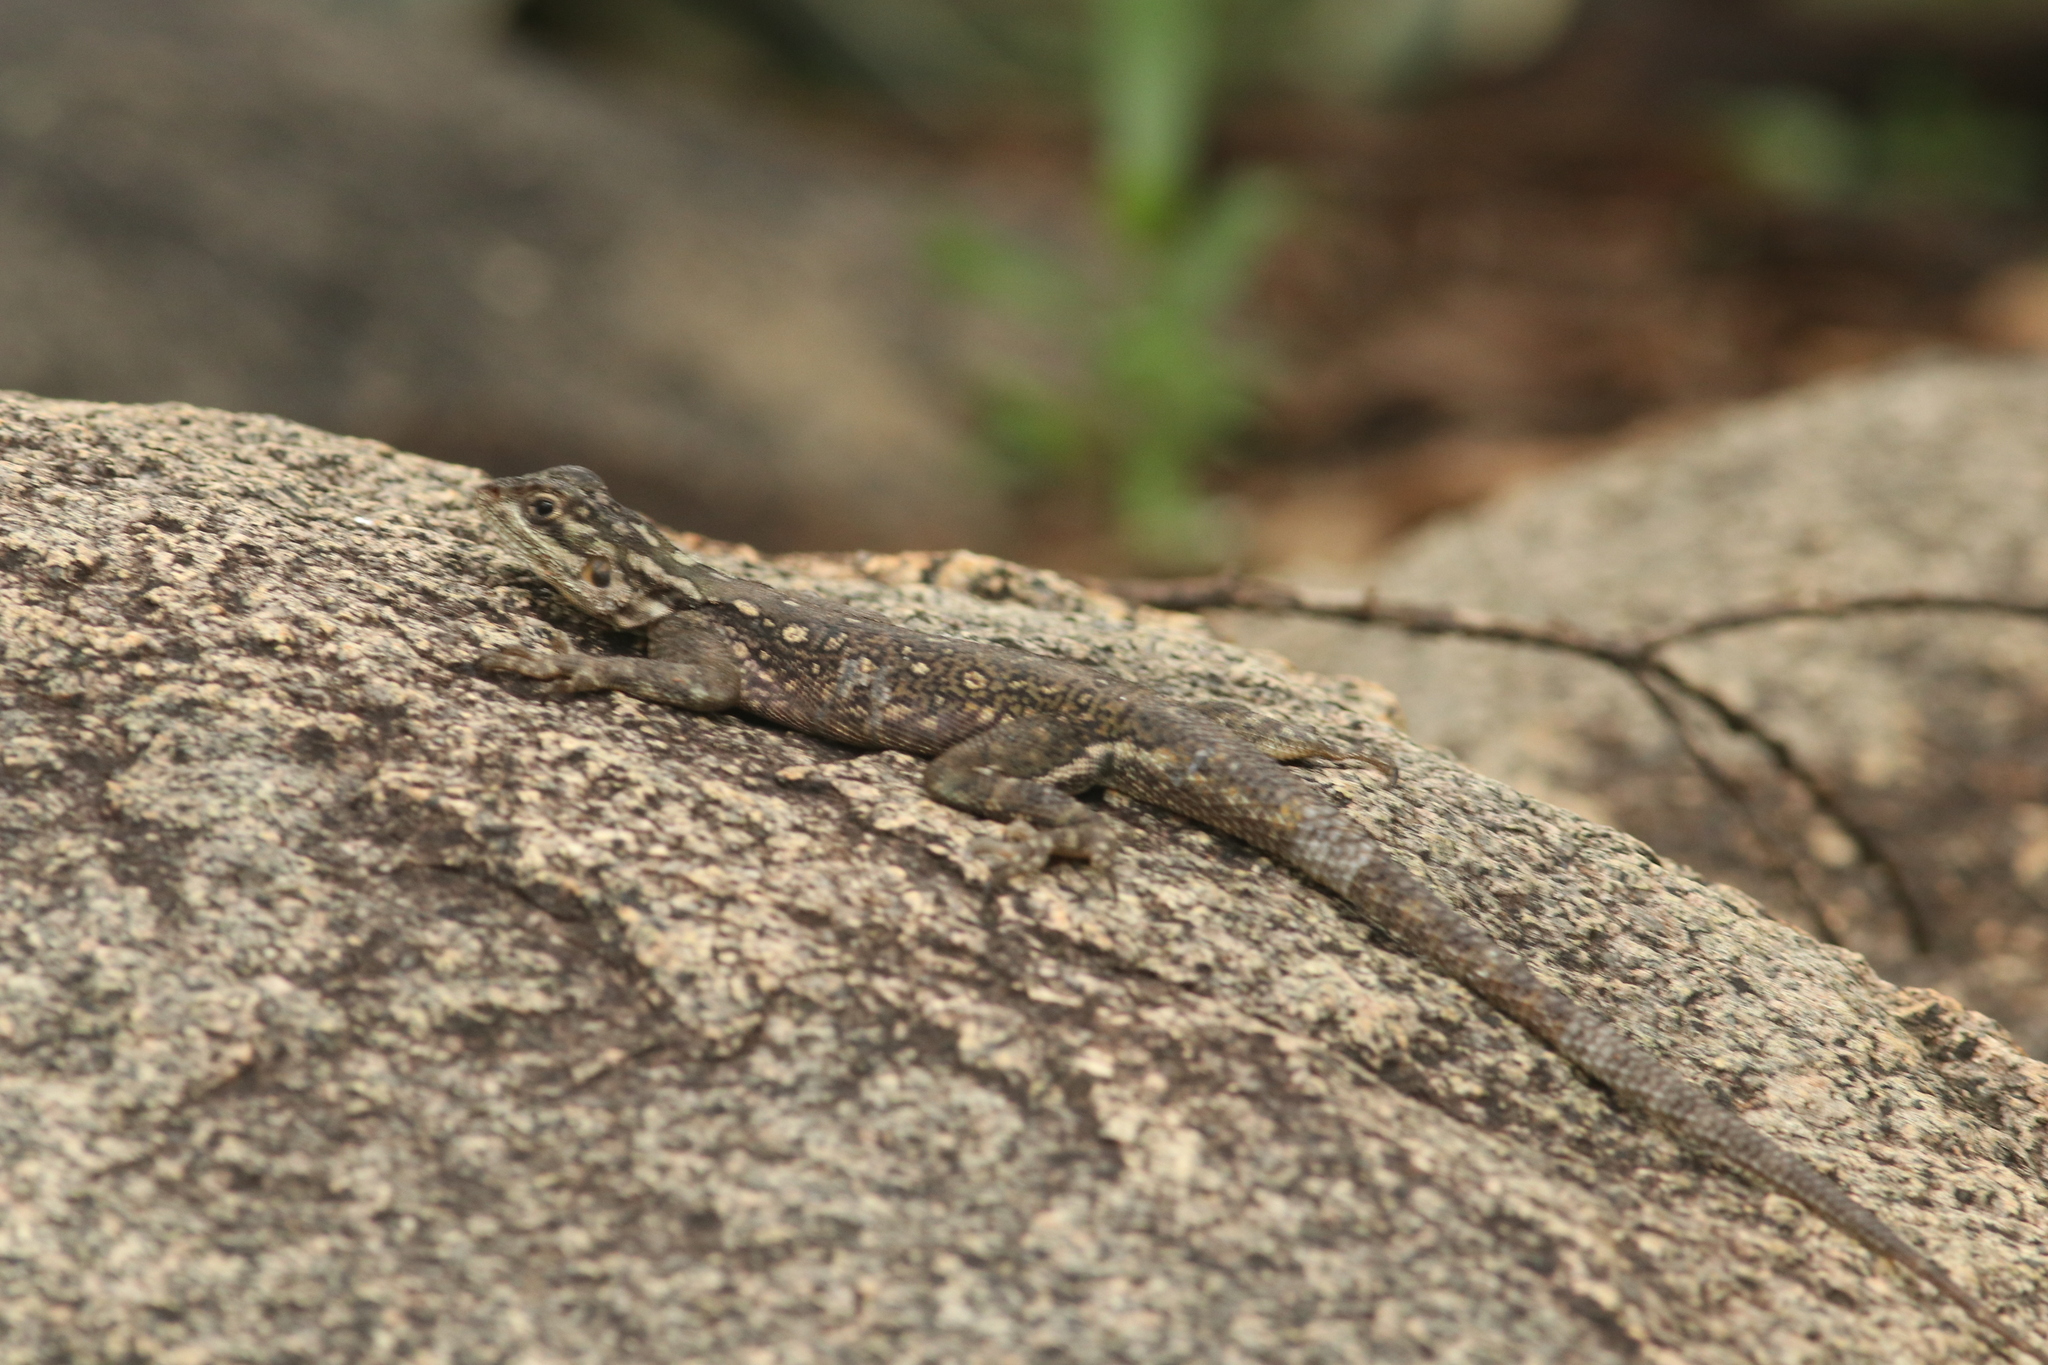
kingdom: Animalia
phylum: Chordata
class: Squamata
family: Agamidae
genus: Agama
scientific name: Agama dodomae
